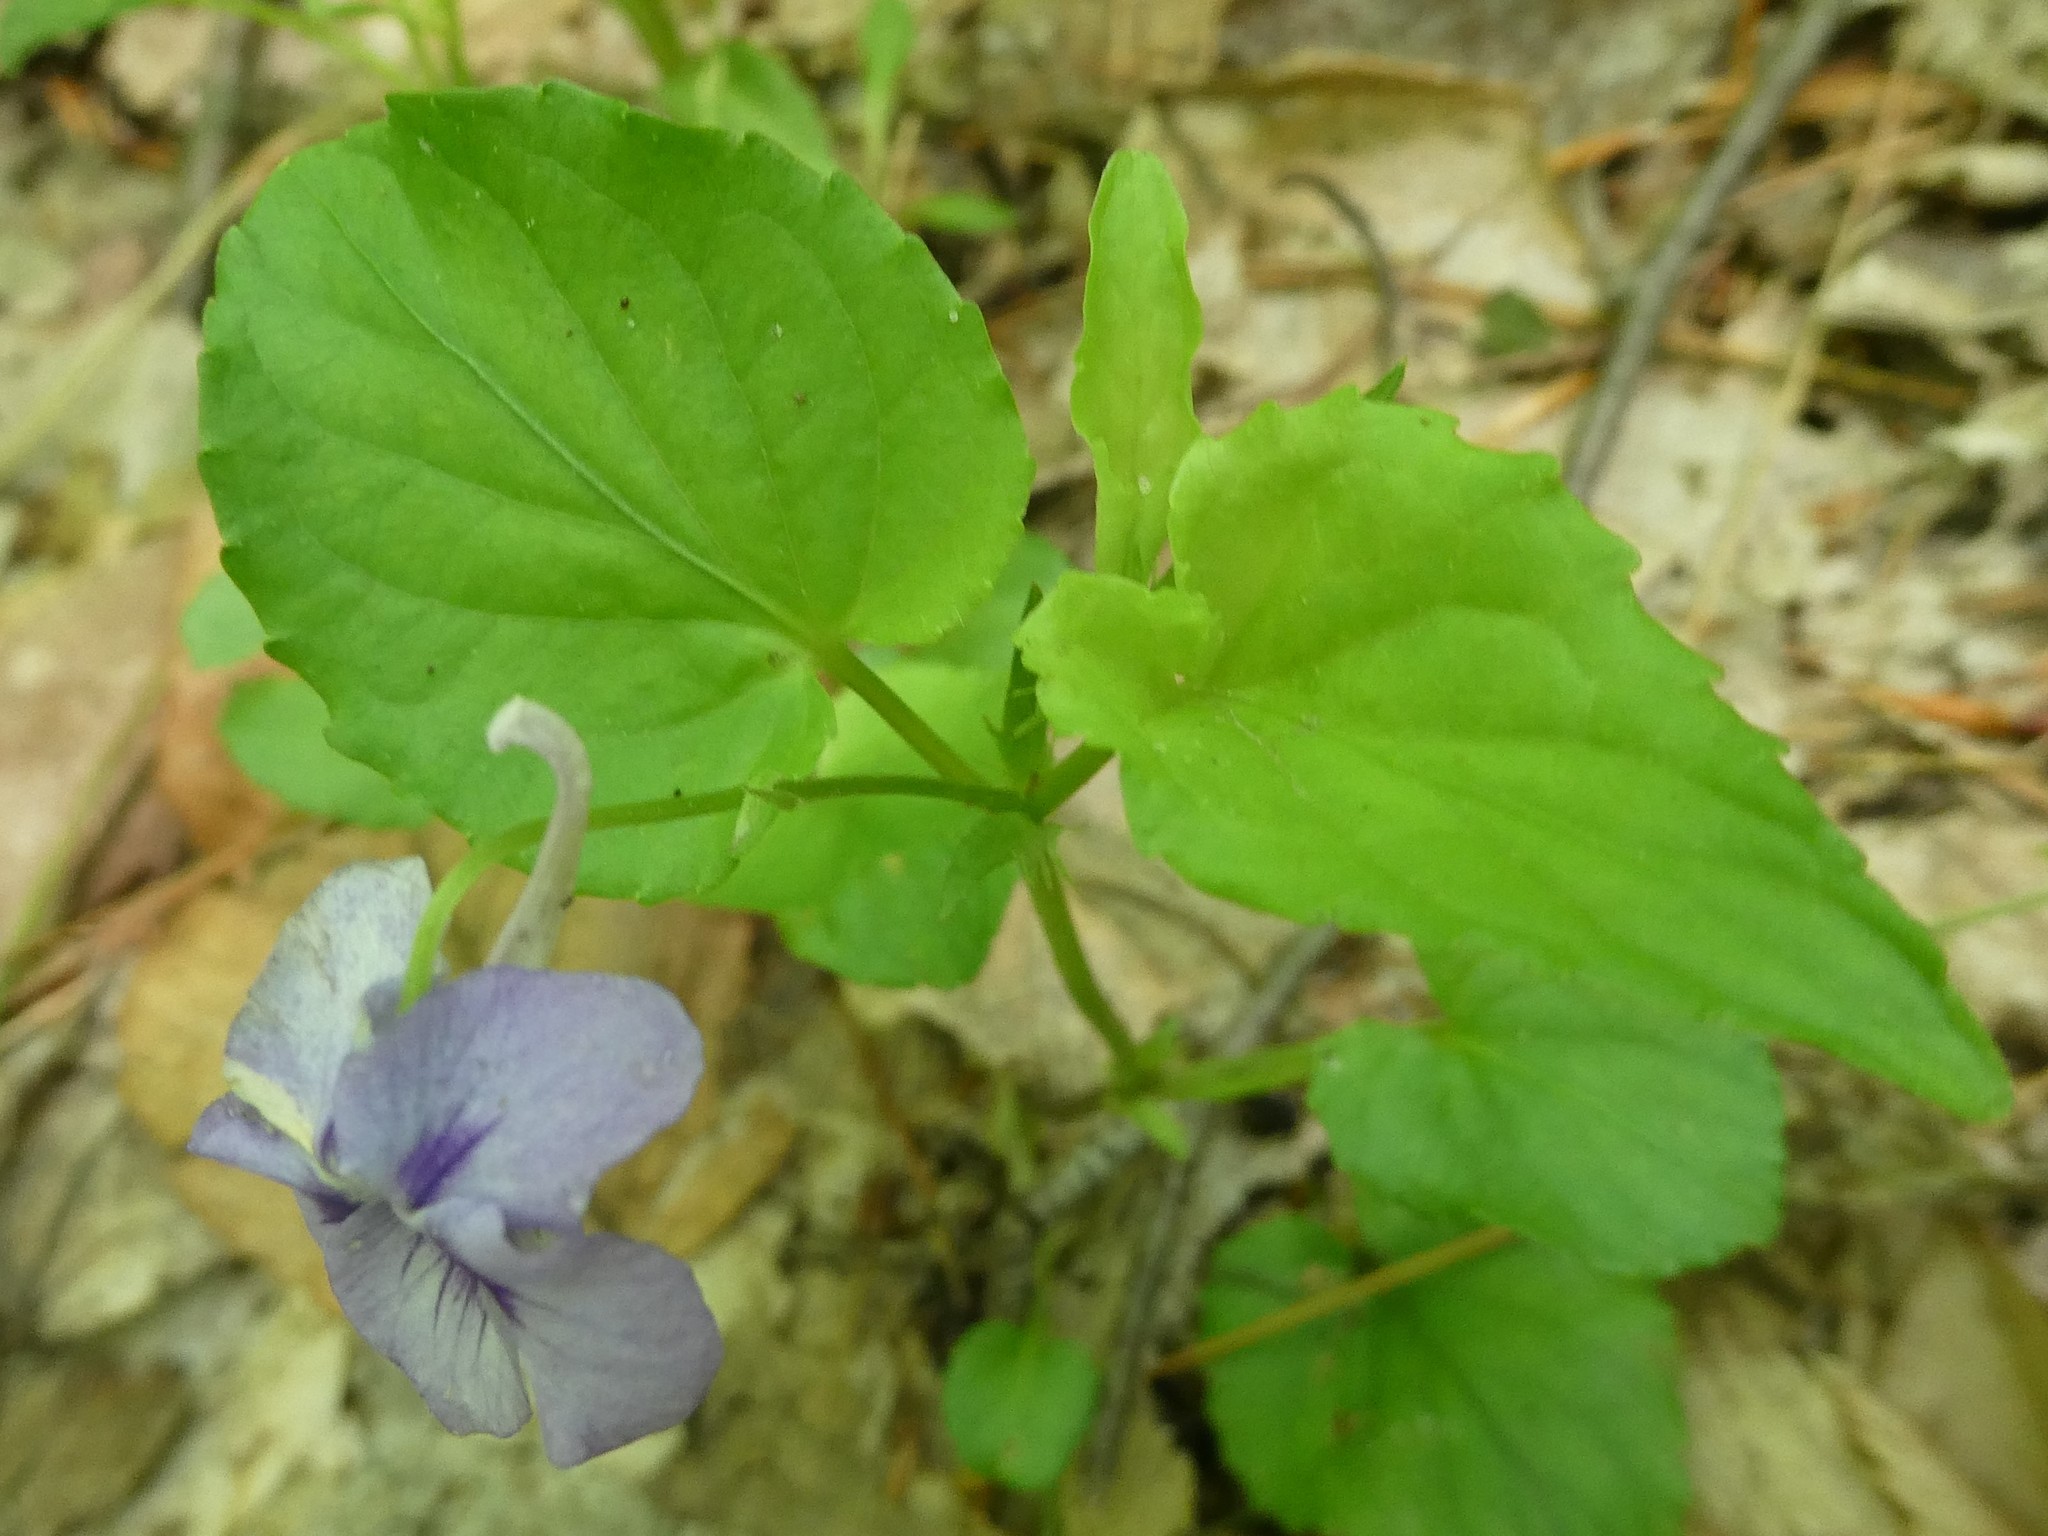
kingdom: Plantae
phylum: Tracheophyta
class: Magnoliopsida
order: Malpighiales
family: Violaceae
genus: Viola
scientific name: Viola rostrata
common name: Long-spur violet
